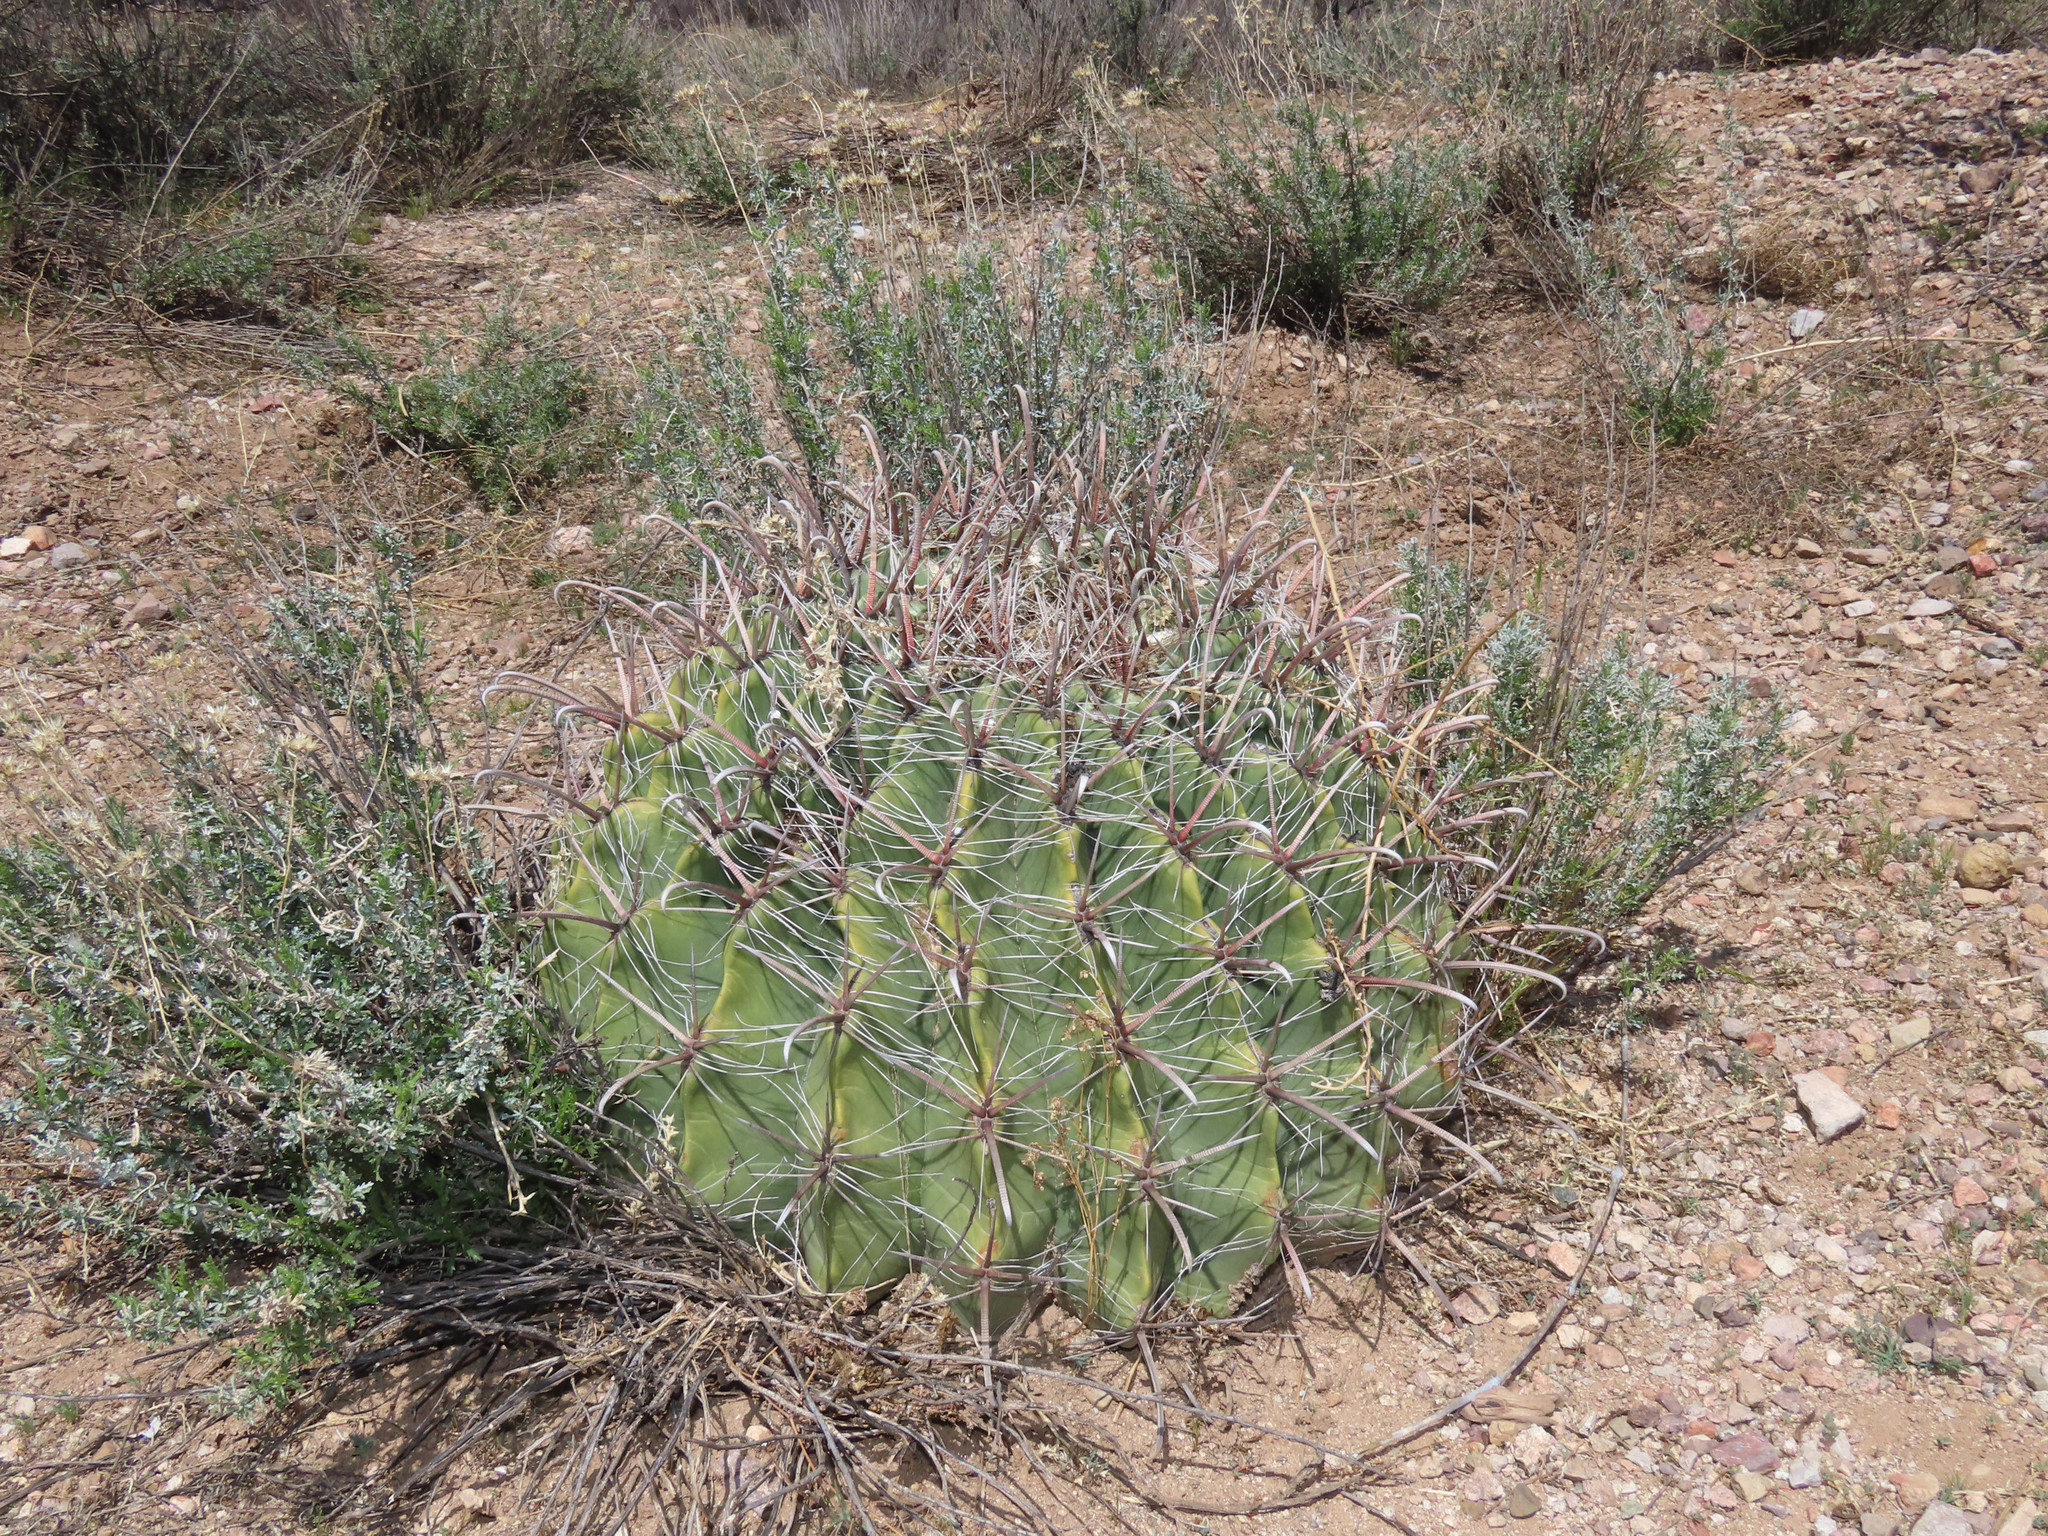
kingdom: Plantae
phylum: Tracheophyta
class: Magnoliopsida
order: Caryophyllales
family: Cactaceae
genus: Ferocactus
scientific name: Ferocactus wislizeni
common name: Candy barrel cactus
